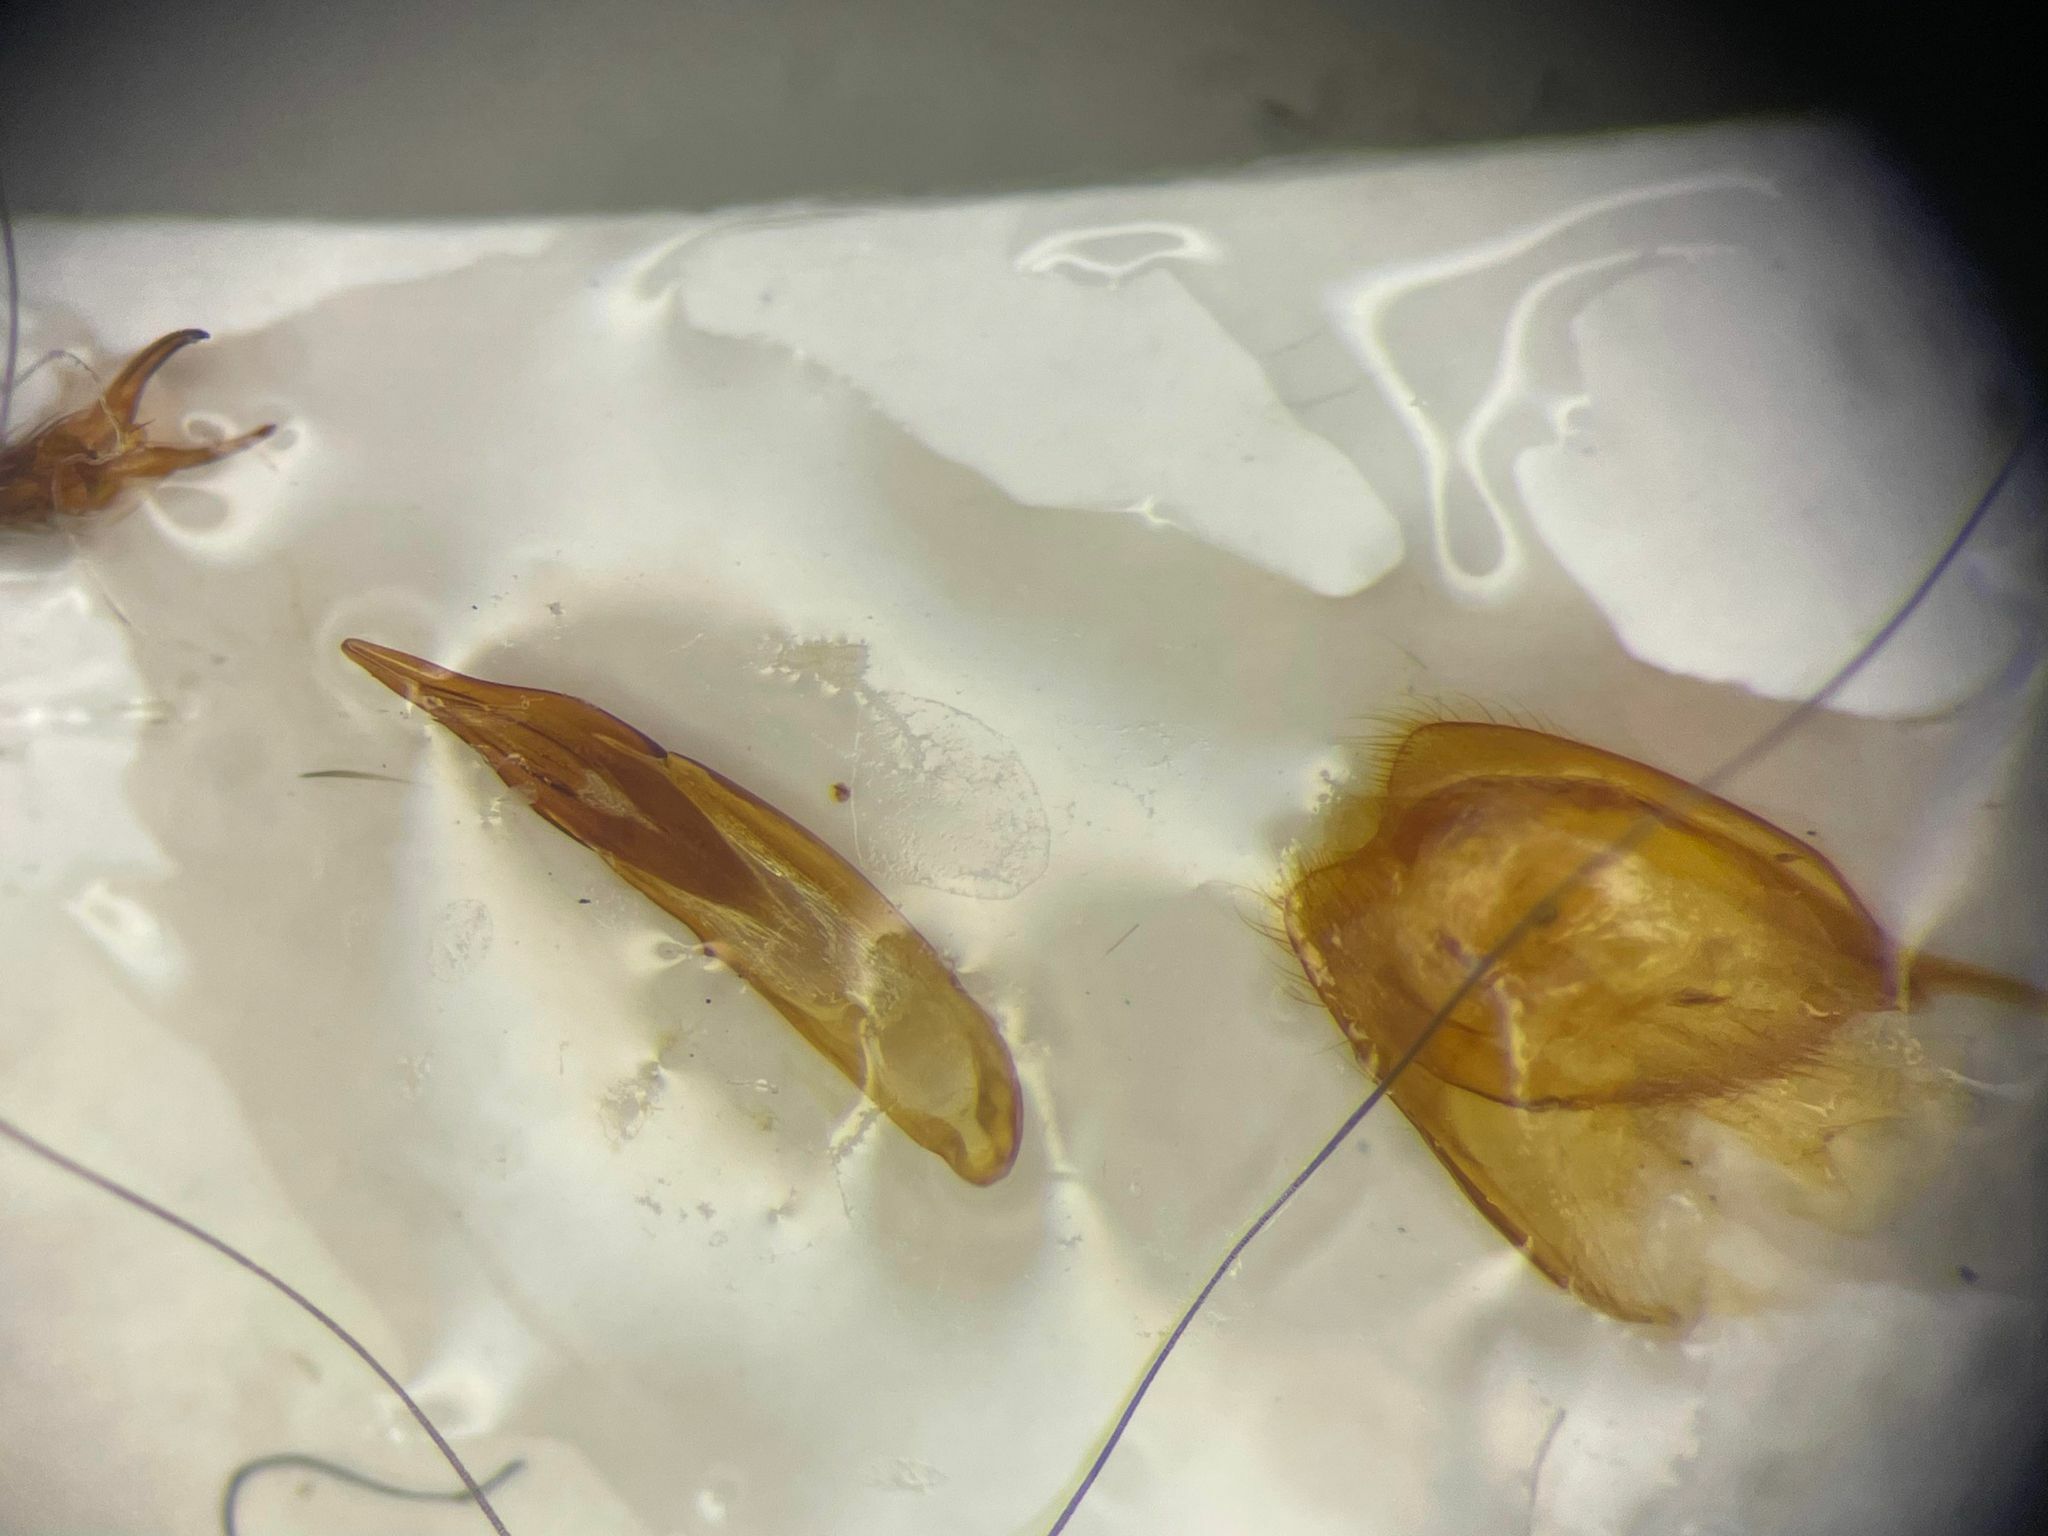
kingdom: Animalia
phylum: Arthropoda
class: Insecta
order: Coleoptera
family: Tenebrionidae
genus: Xylopinus
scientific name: Xylopinus aenescens
